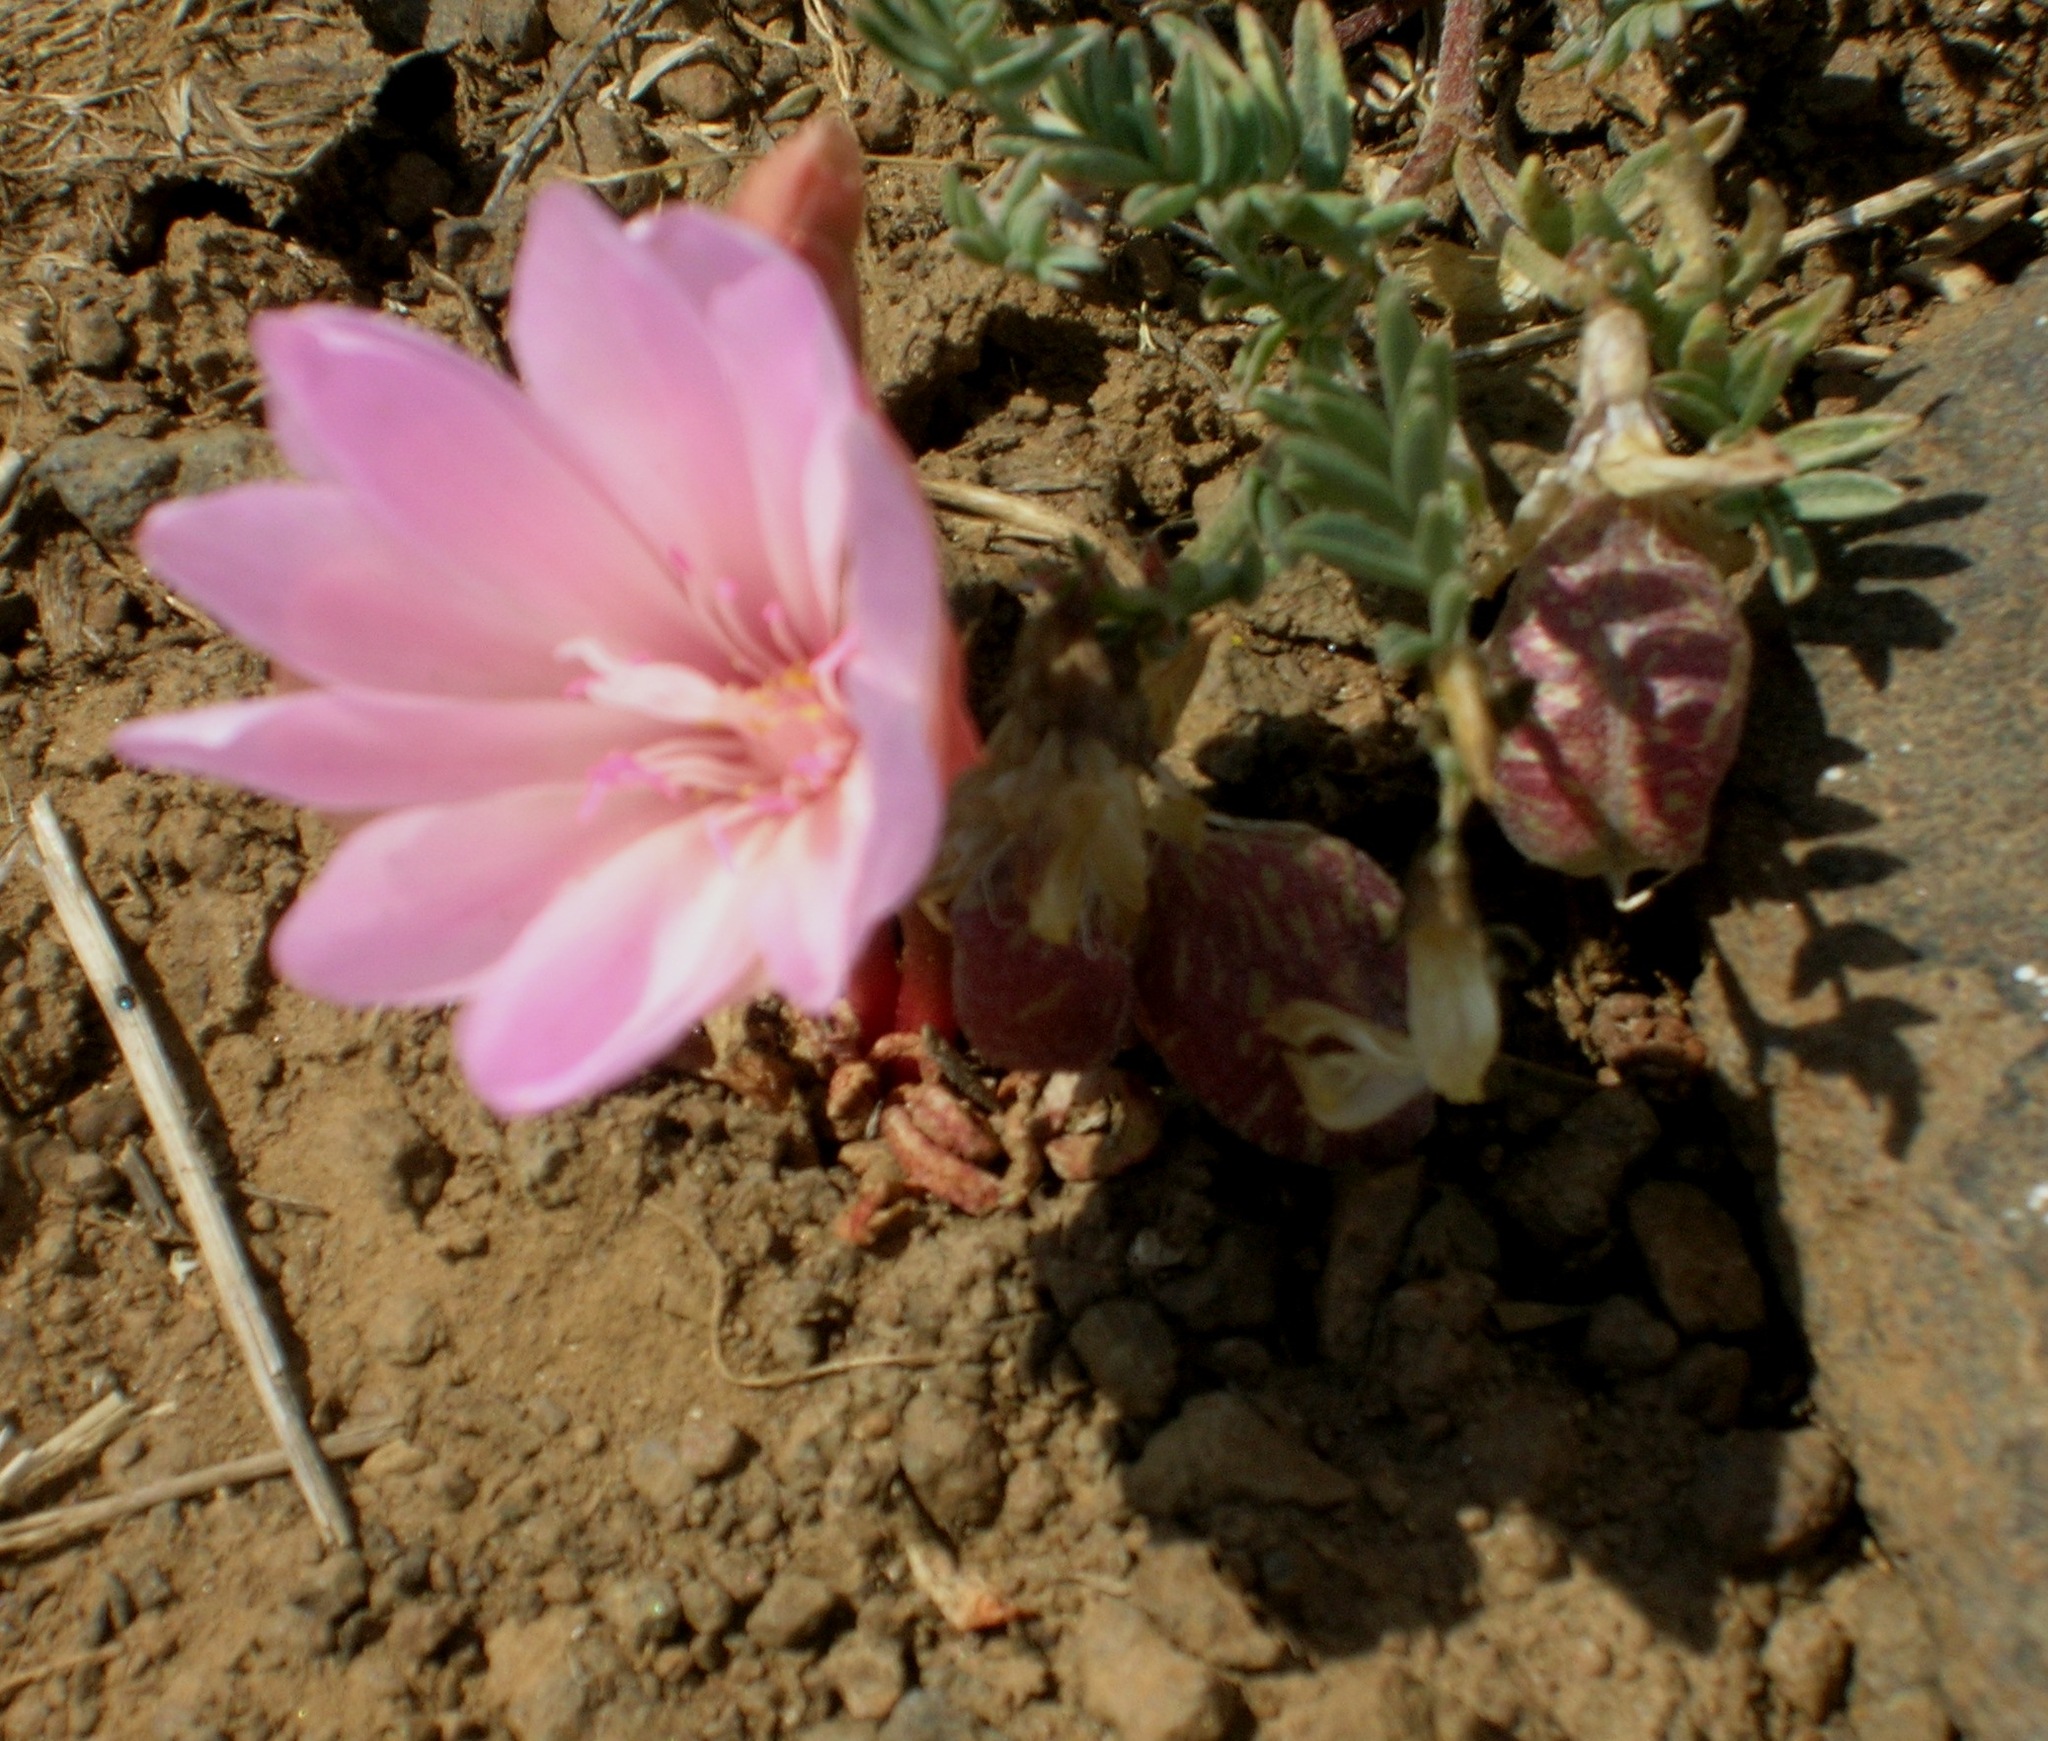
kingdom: Plantae
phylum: Tracheophyta
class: Magnoliopsida
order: Caryophyllales
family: Montiaceae
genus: Lewisia
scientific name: Lewisia rediviva
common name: Bitter-root
